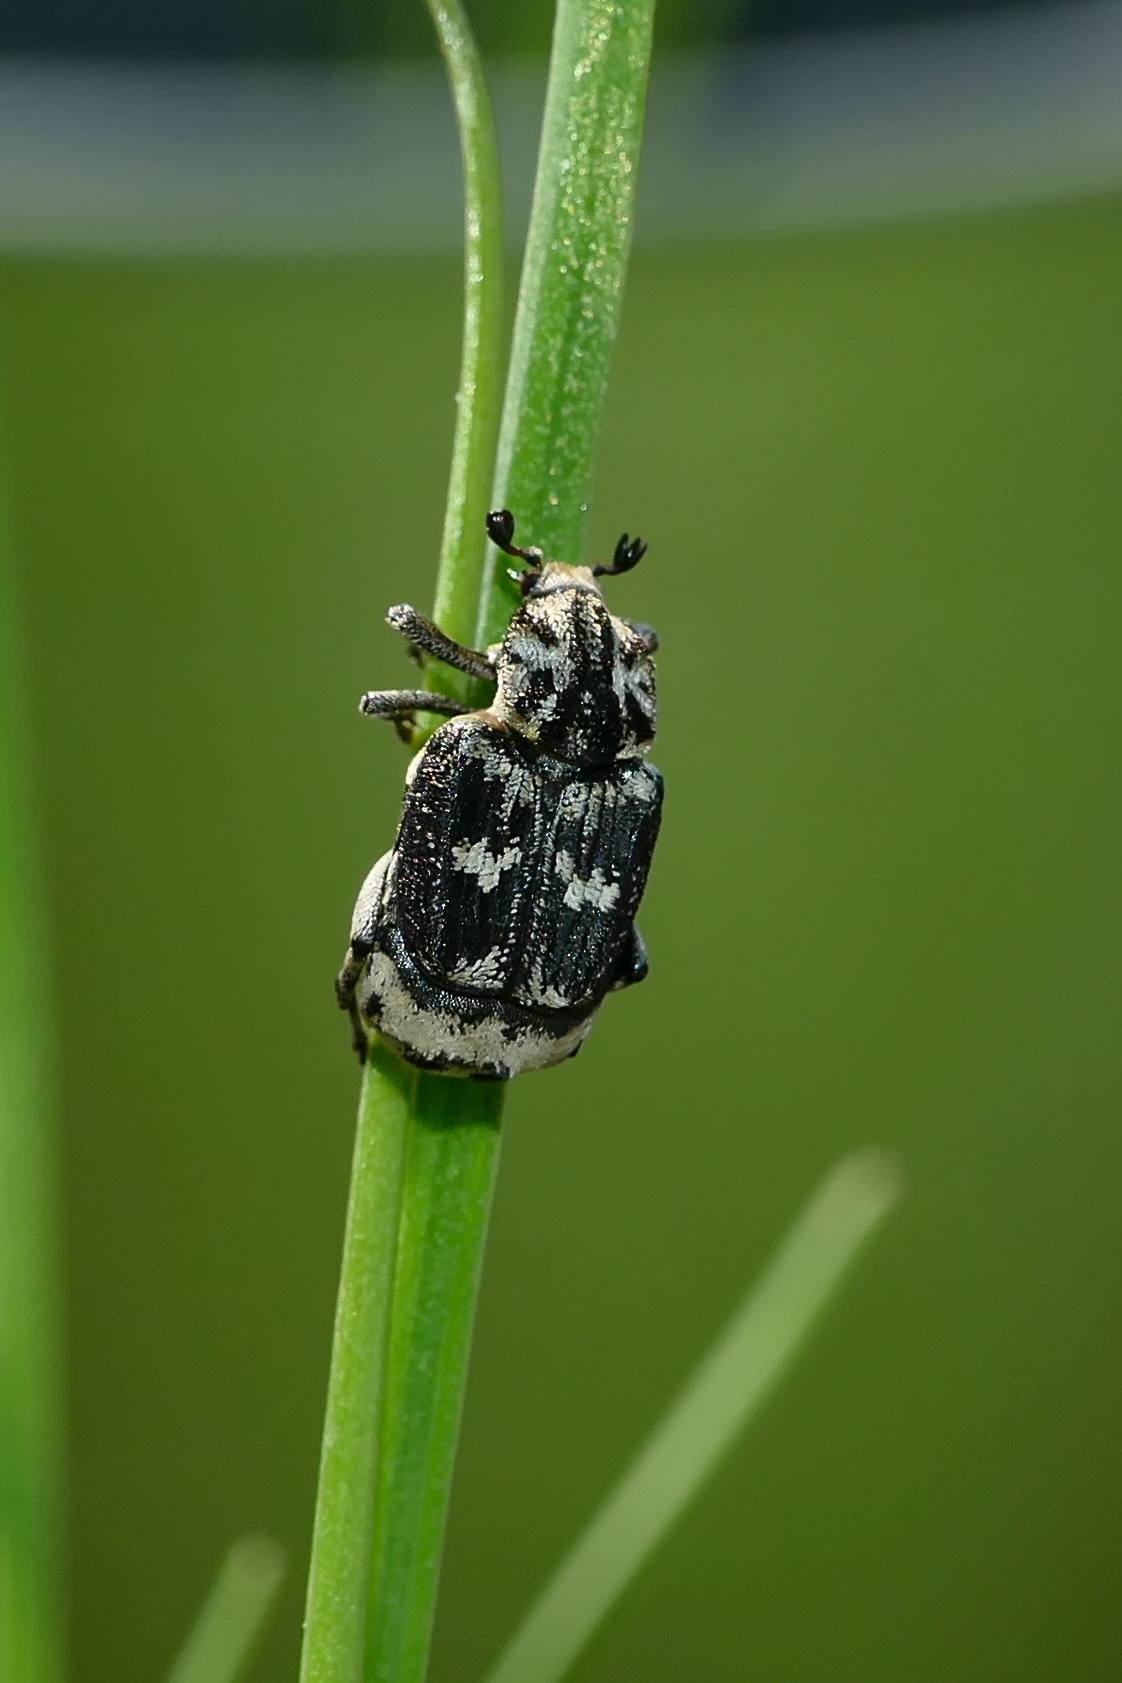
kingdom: Animalia
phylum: Arthropoda
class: Insecta
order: Coleoptera
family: Scarabaeidae
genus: Valgus
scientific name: Valgus hemipterus
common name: Bug flower chafer
